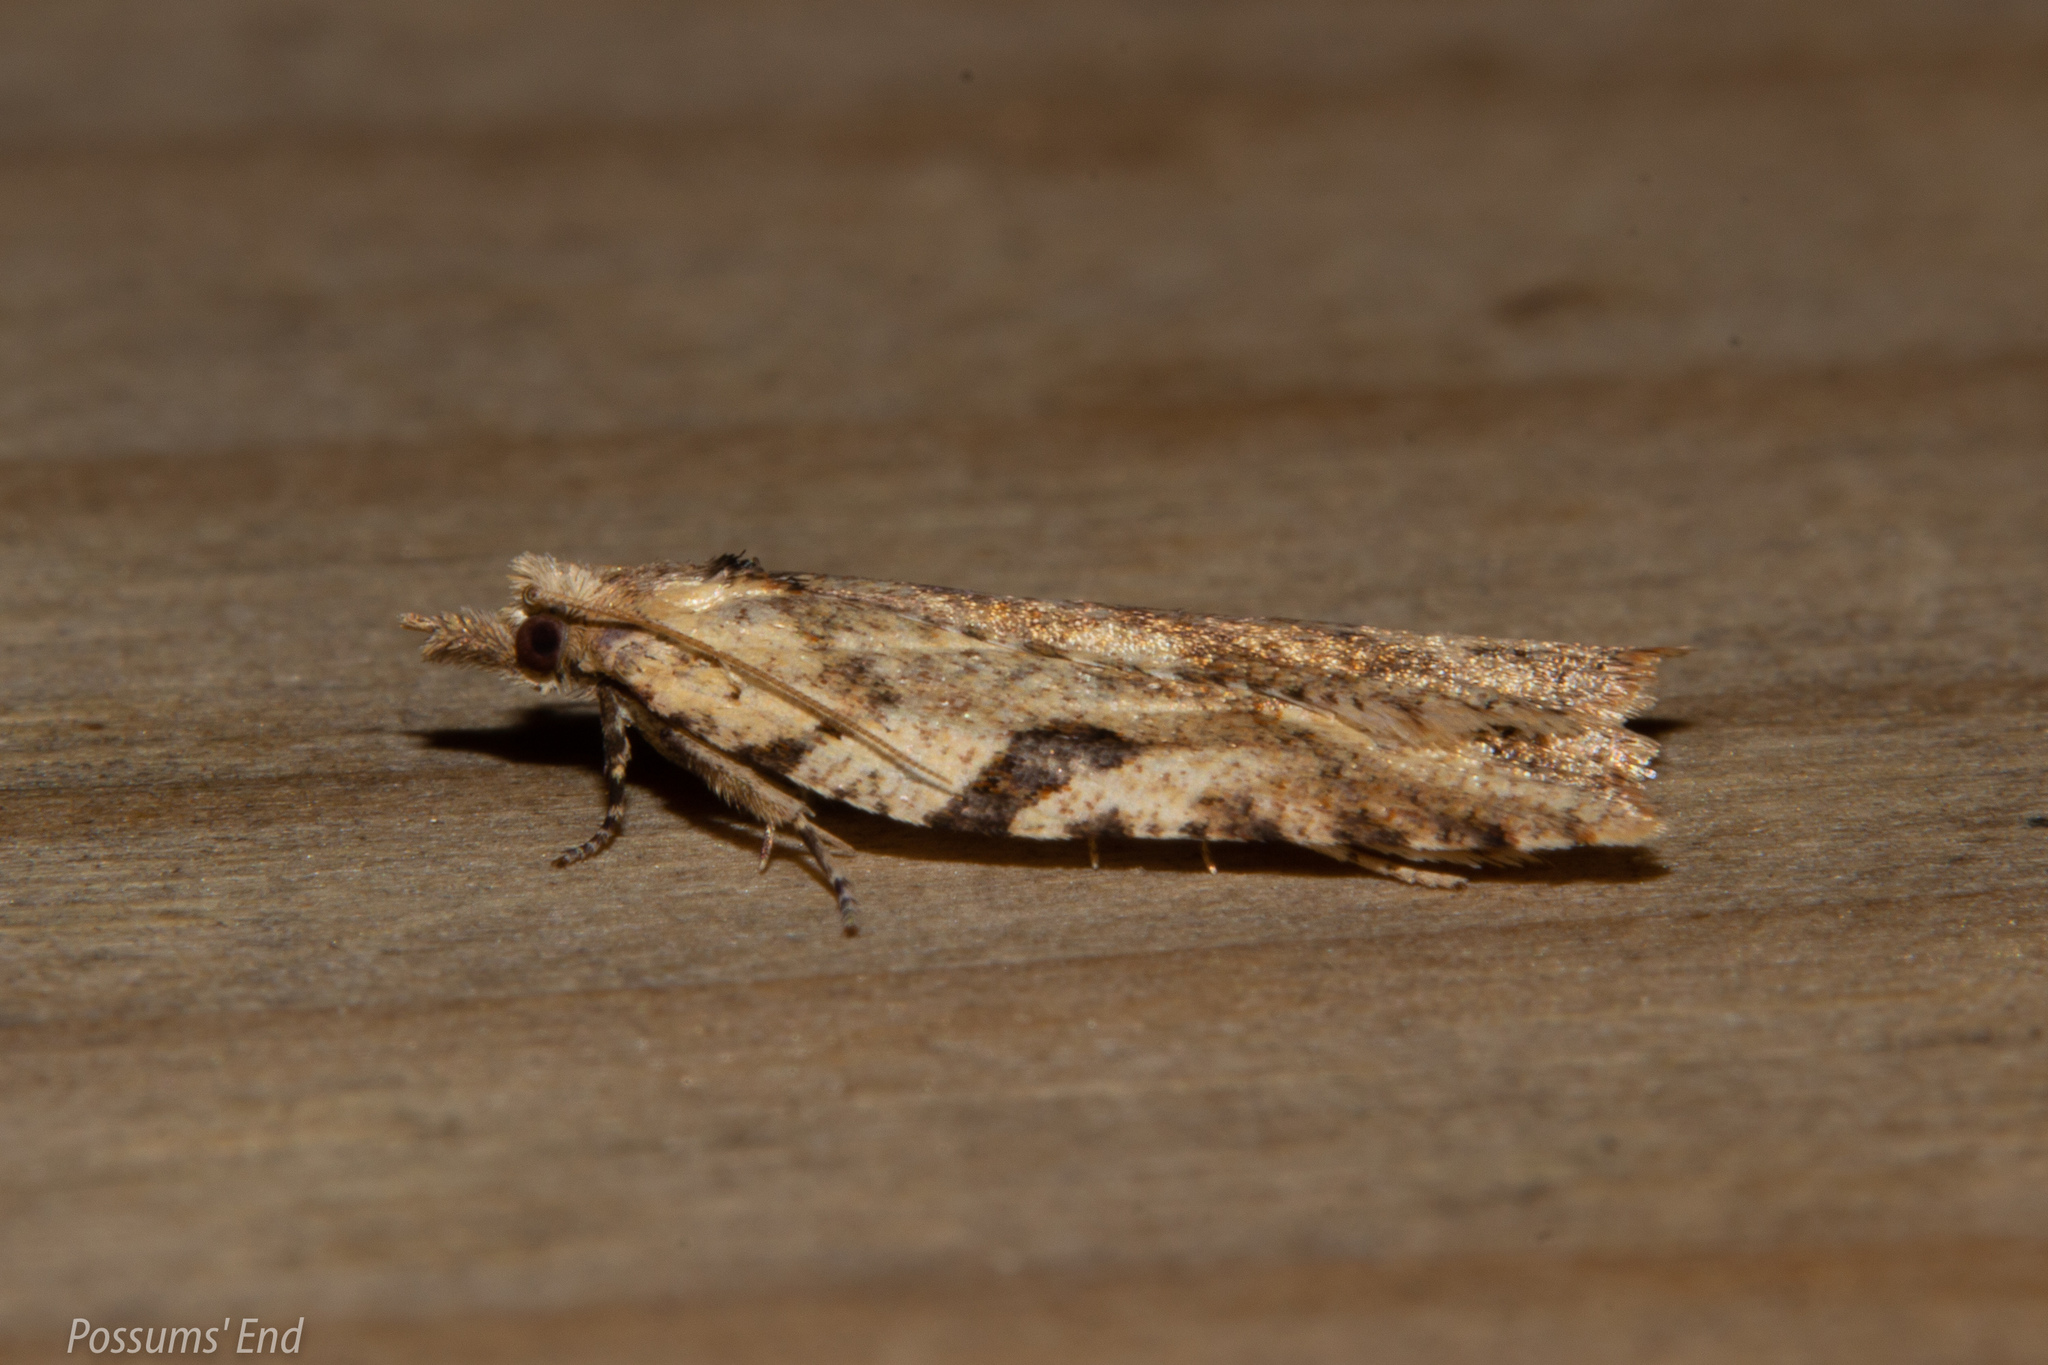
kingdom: Animalia
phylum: Arthropoda
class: Insecta
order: Lepidoptera
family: Tortricidae
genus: Ctenopseustis
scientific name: Ctenopseustis obliquana
